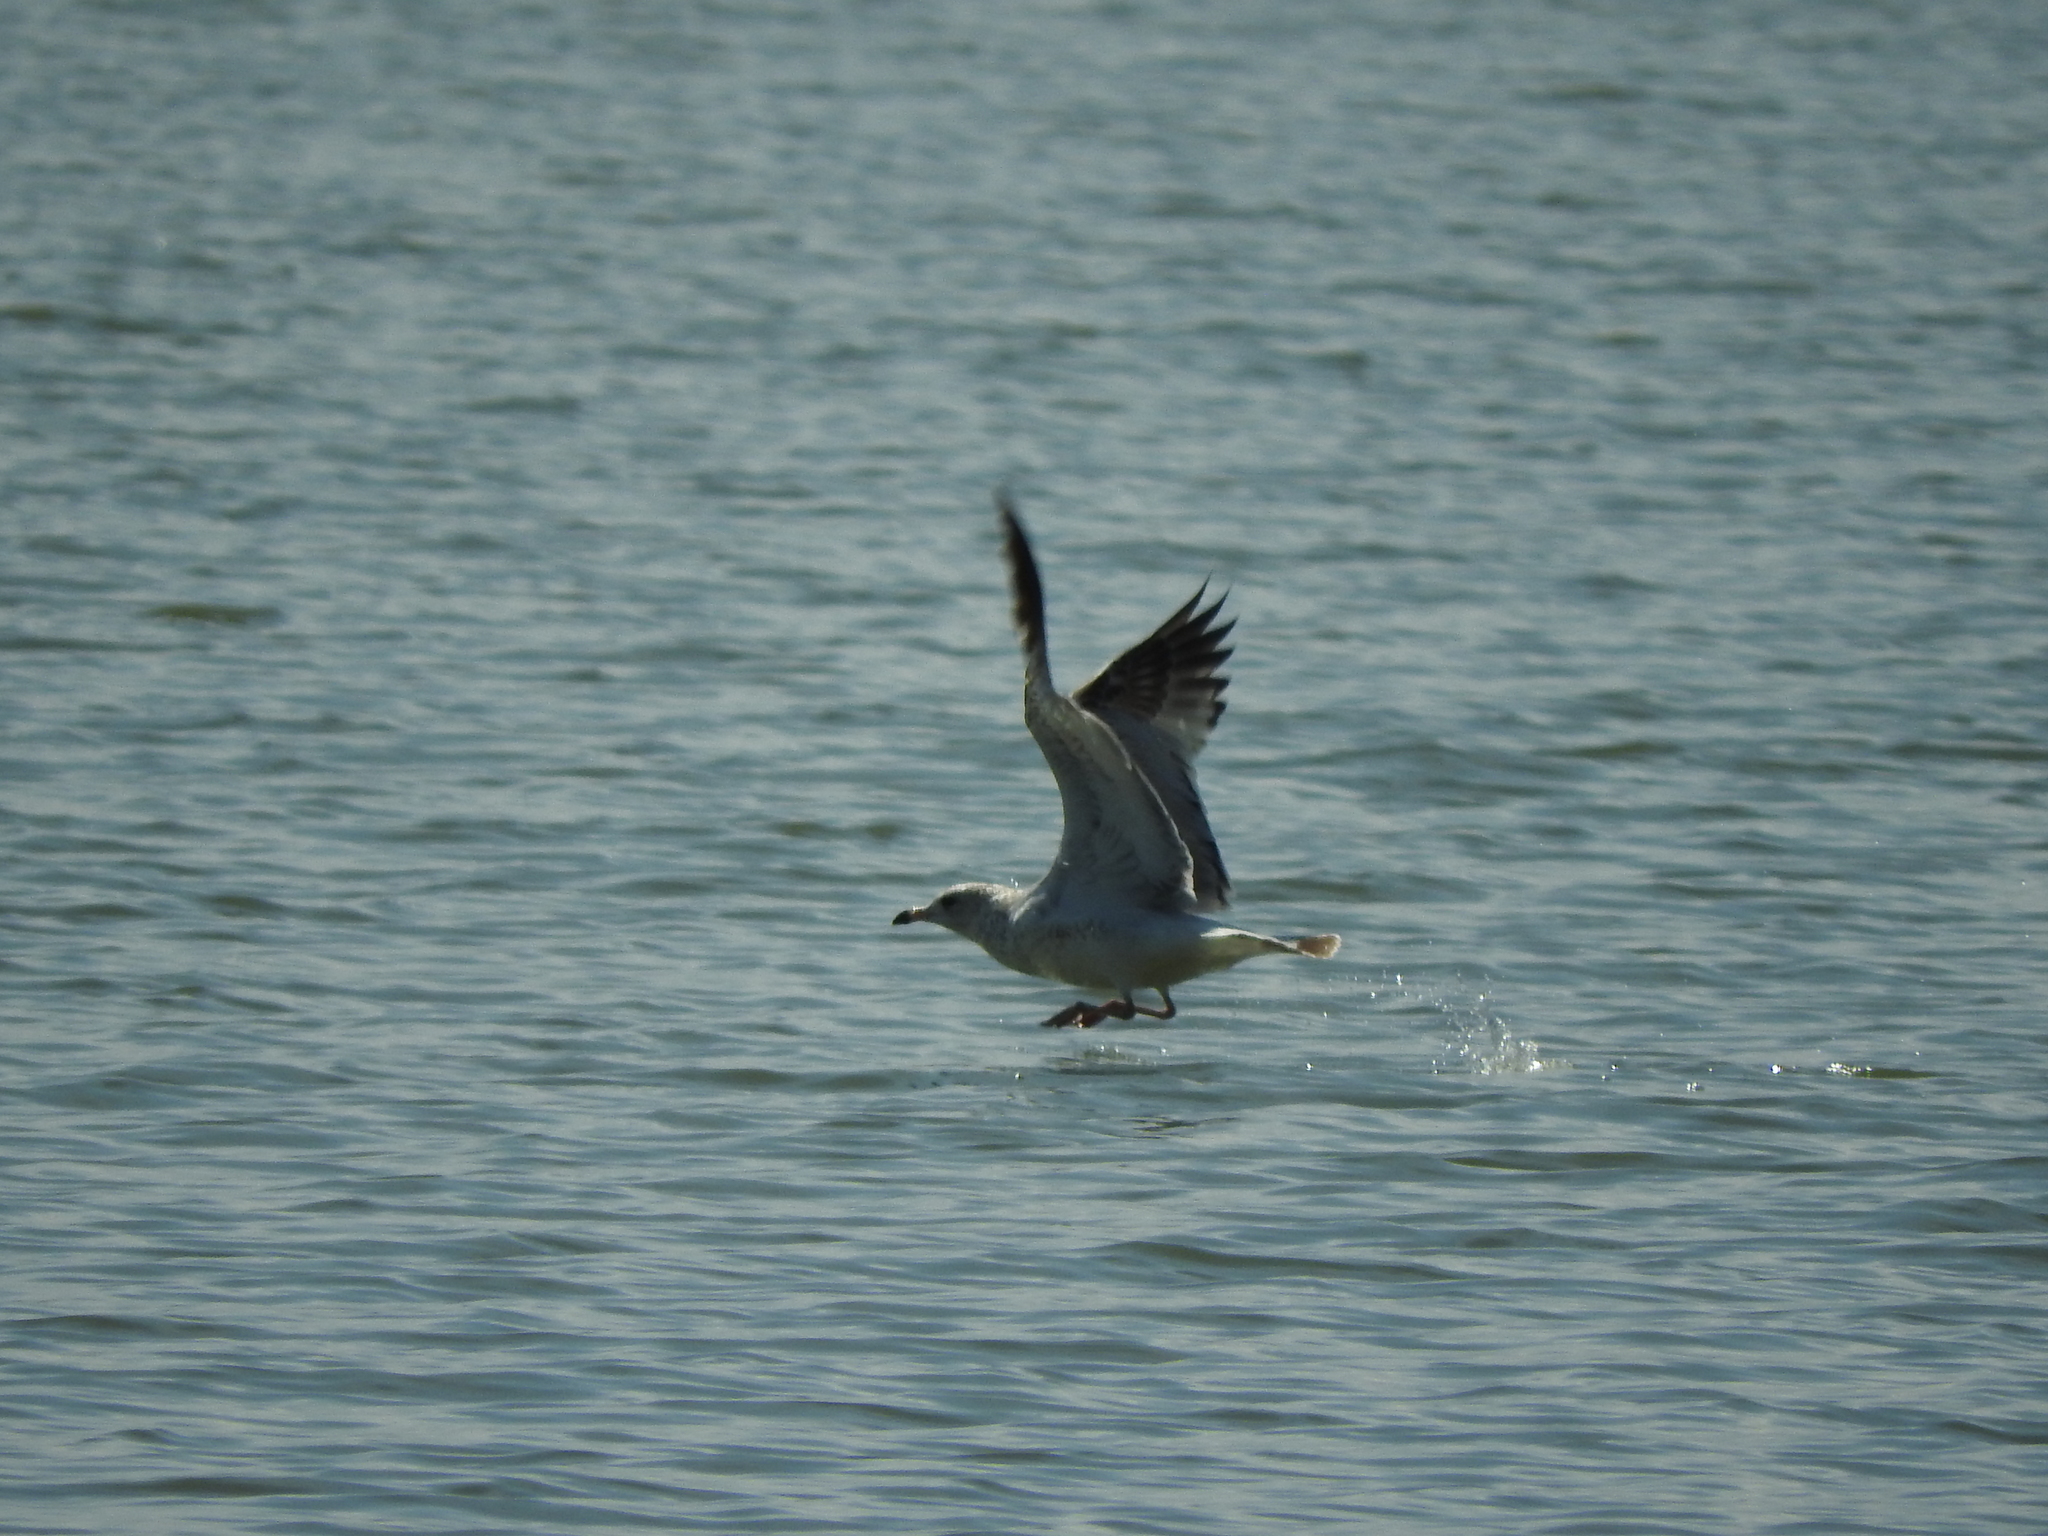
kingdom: Animalia
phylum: Chordata
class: Aves
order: Charadriiformes
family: Laridae
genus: Larus
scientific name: Larus delawarensis
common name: Ring-billed gull
